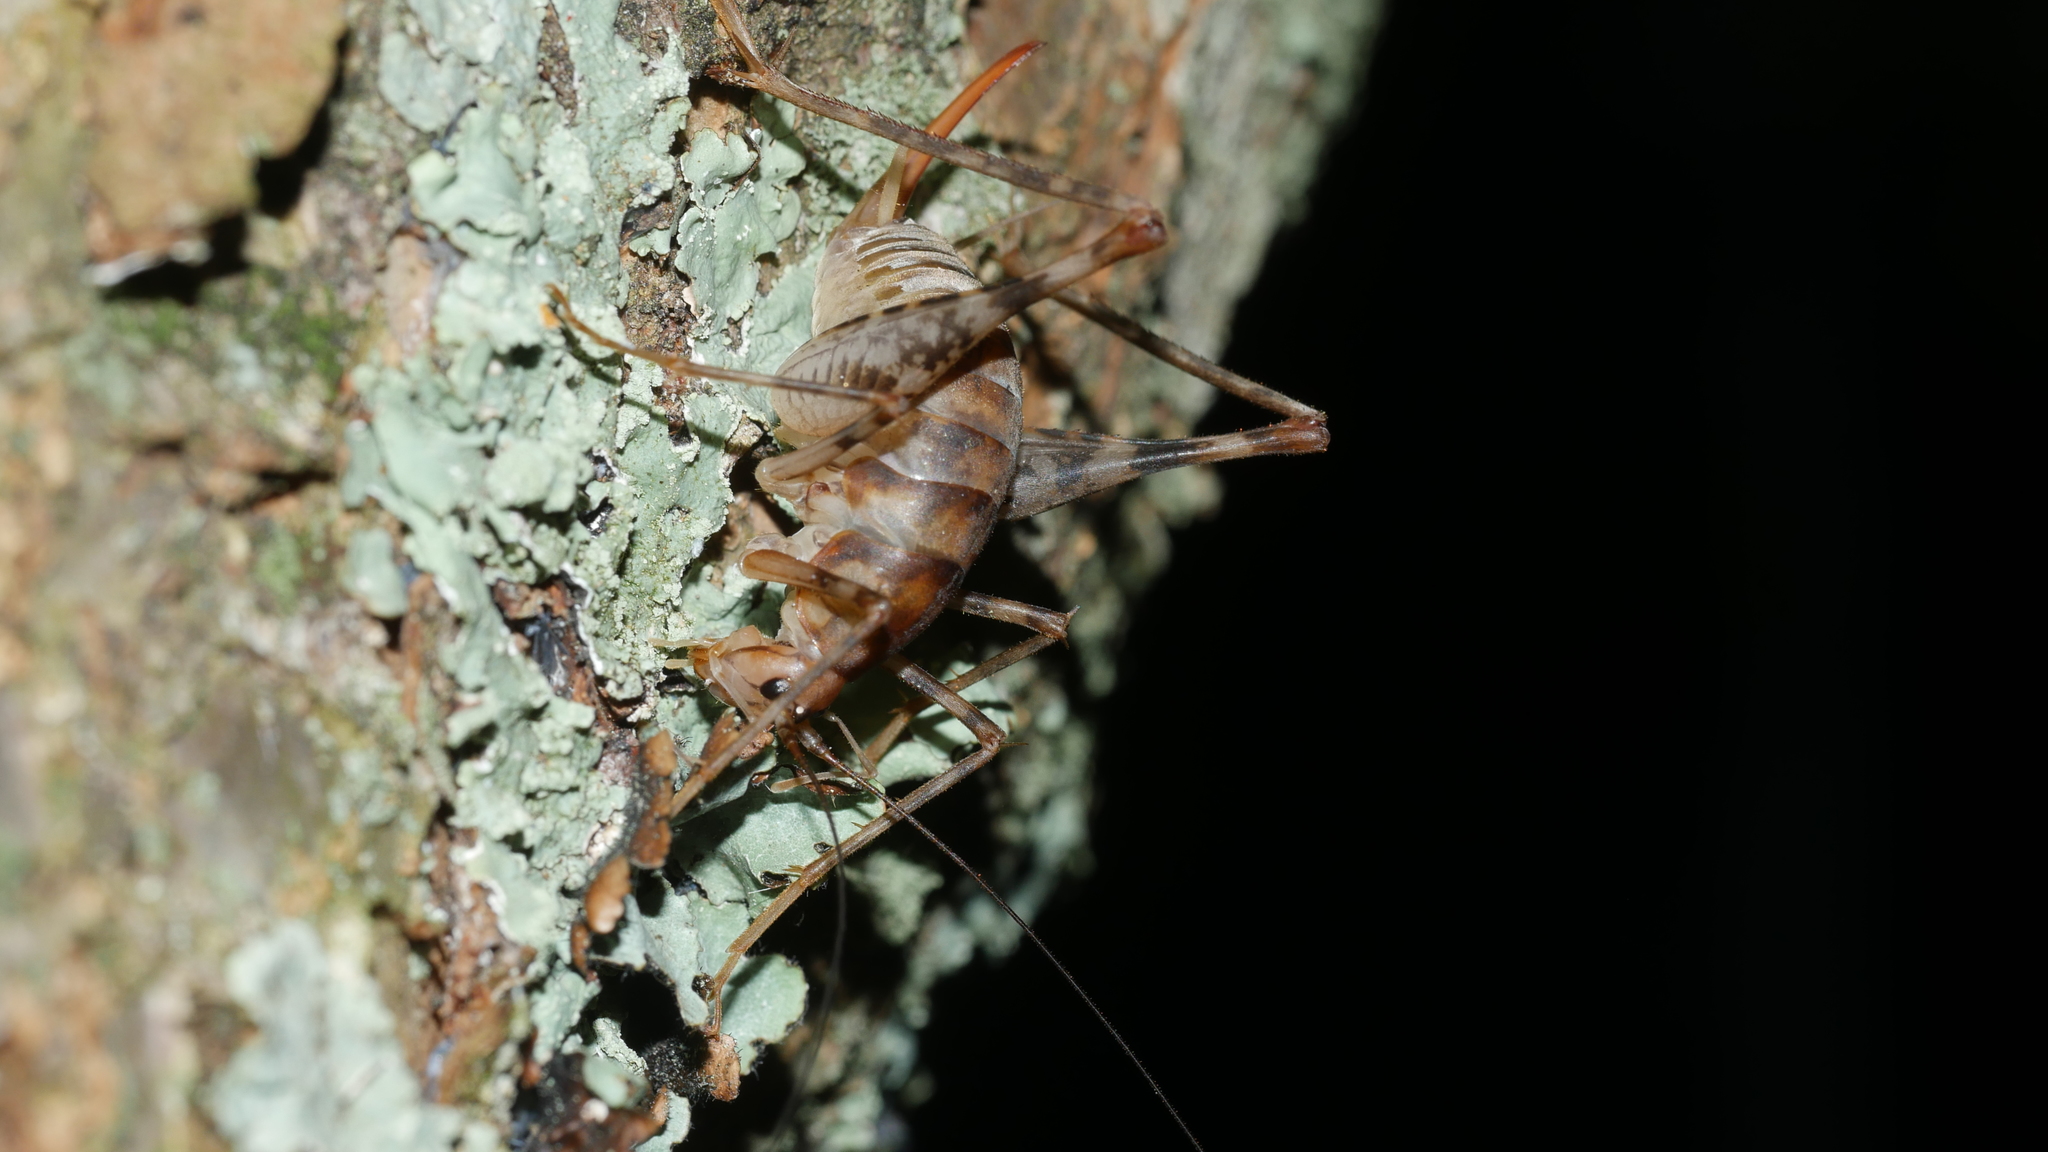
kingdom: Animalia
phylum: Arthropoda
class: Insecta
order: Orthoptera
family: Rhaphidophoridae
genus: Tachycines
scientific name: Tachycines asynamorus
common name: Greenhouse camel cricket
